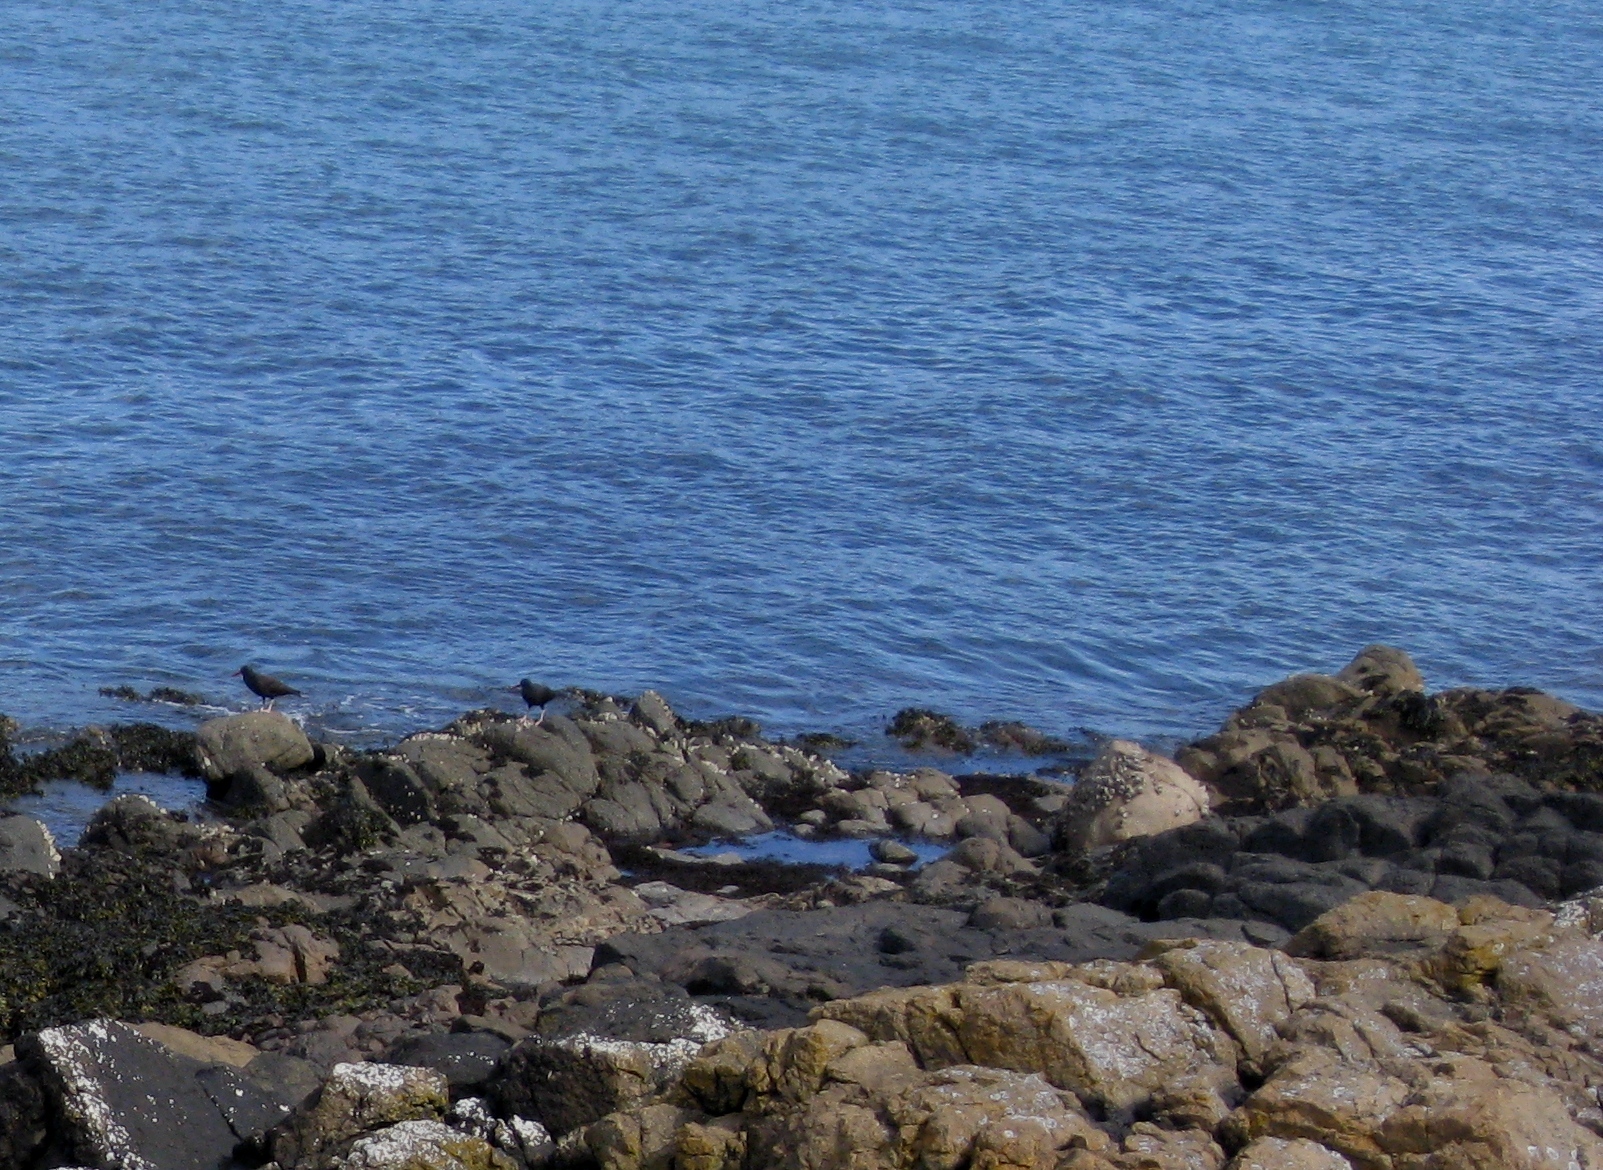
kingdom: Animalia
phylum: Chordata
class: Aves
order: Charadriiformes
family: Haematopodidae
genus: Haematopus
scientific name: Haematopus bachmani
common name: Black oystercatcher
